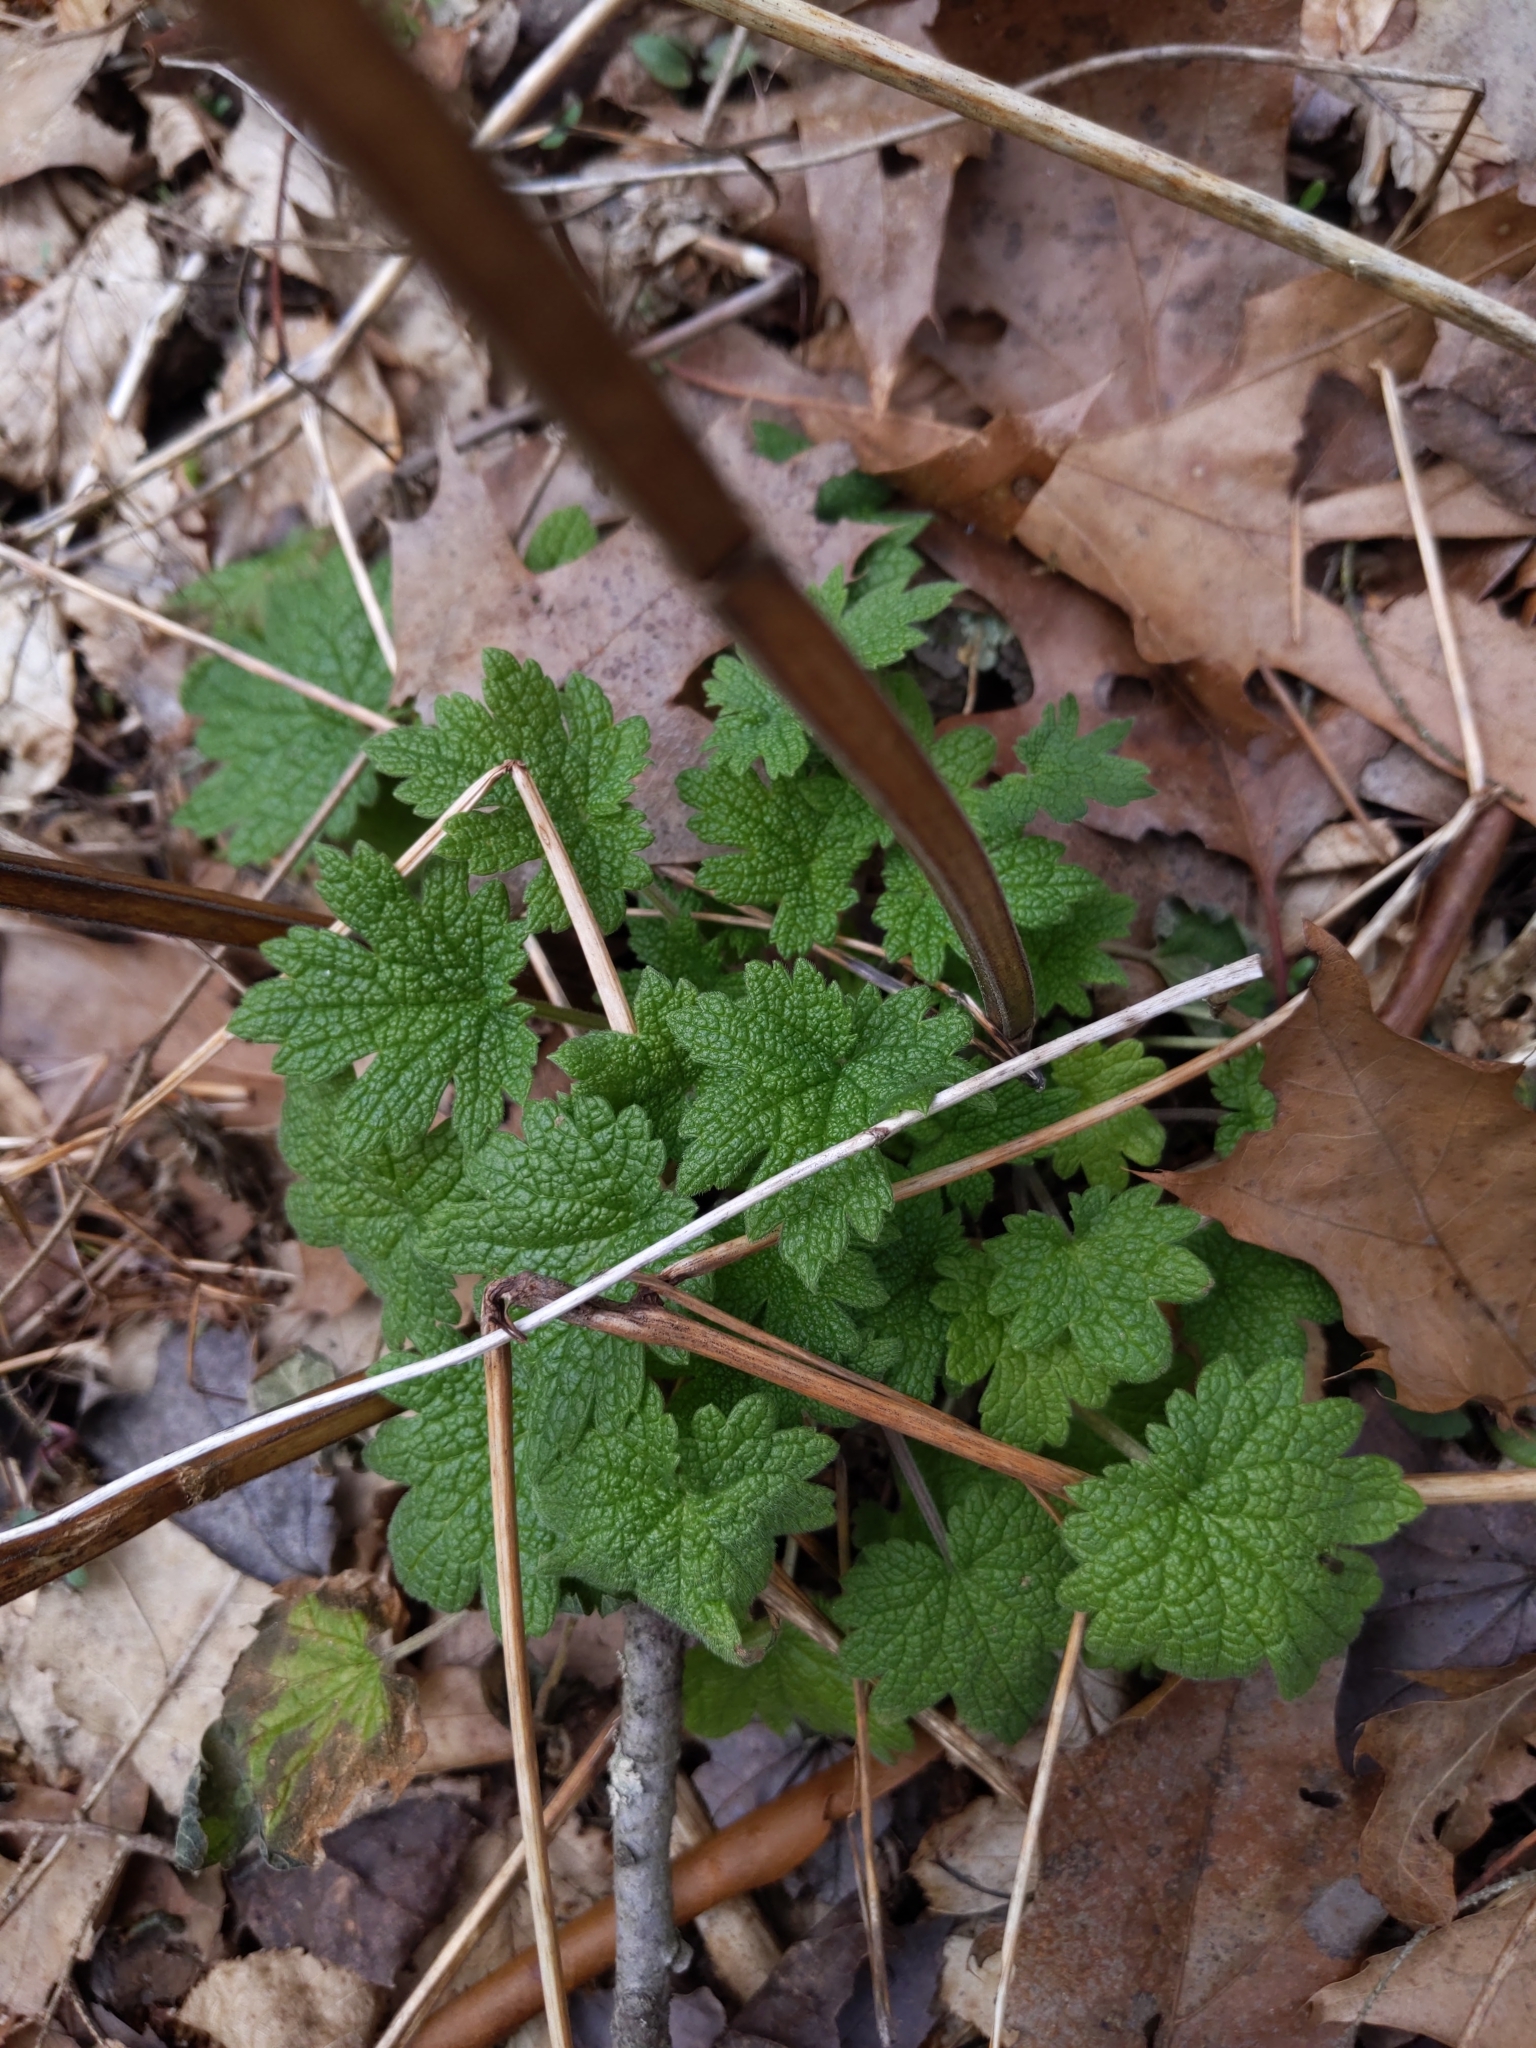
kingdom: Plantae
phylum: Tracheophyta
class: Magnoliopsida
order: Lamiales
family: Lamiaceae
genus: Leonurus
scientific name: Leonurus cardiaca
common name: Motherwort
